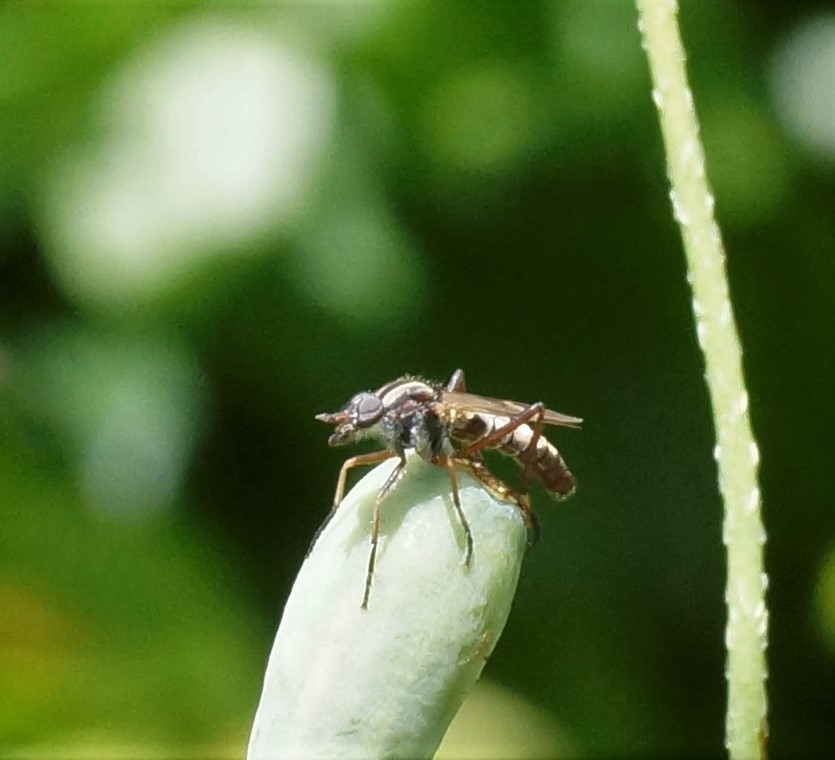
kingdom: Animalia
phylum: Arthropoda
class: Insecta
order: Diptera
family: Therevidae
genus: Ectinorhynchus
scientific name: Ectinorhynchus
